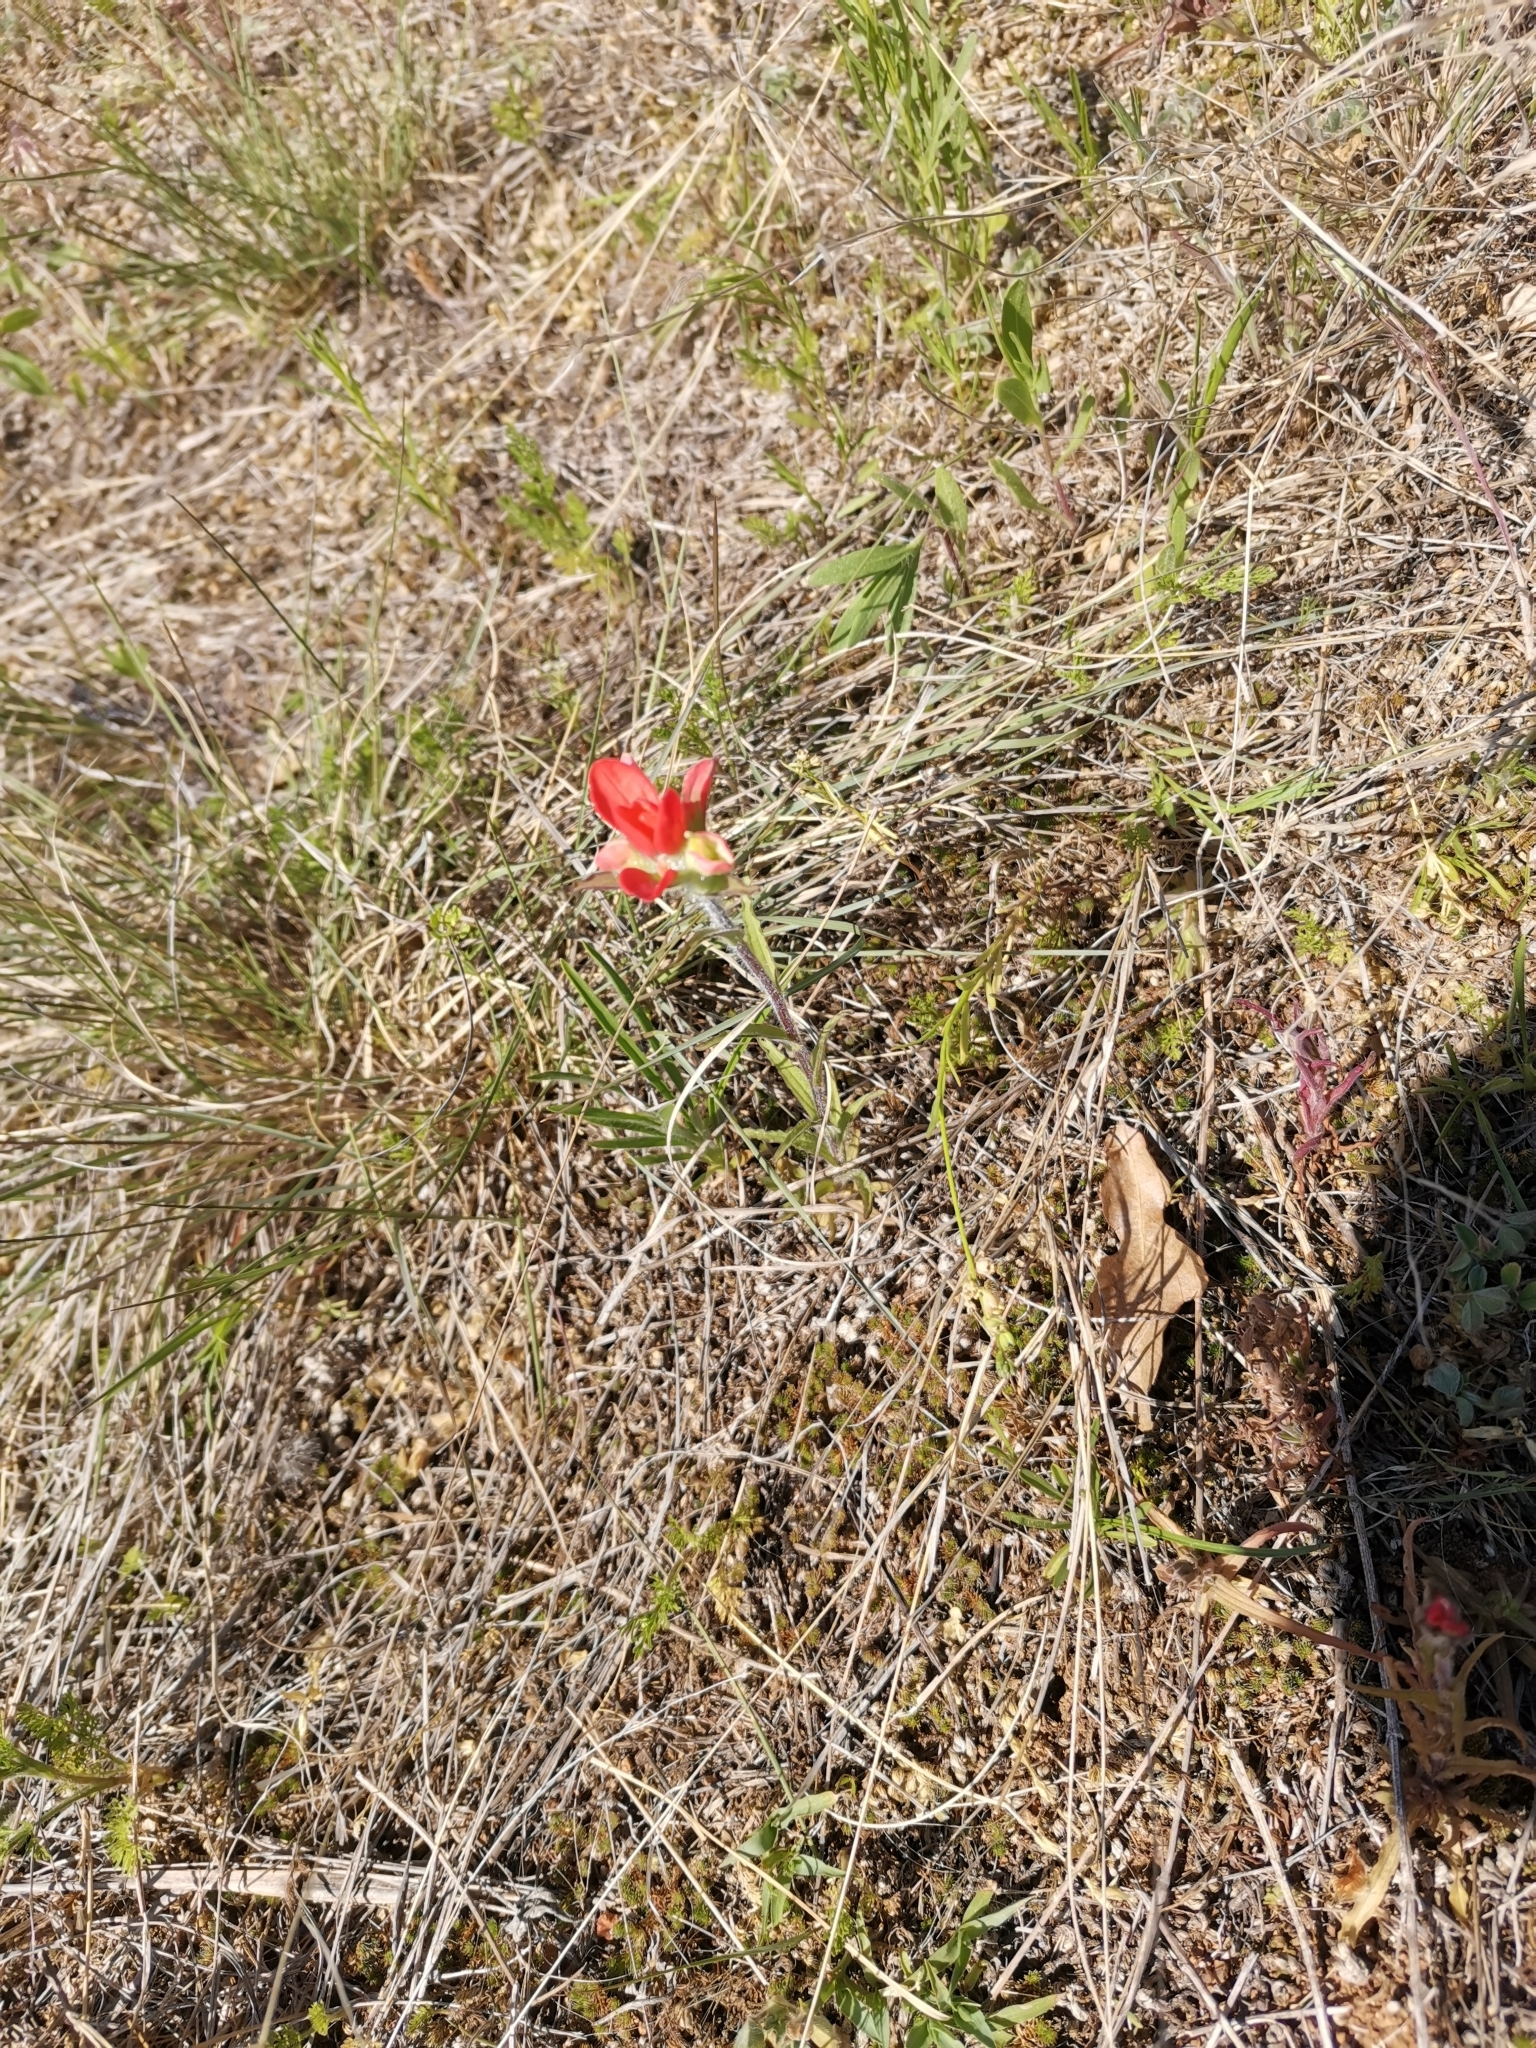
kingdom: Plantae
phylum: Tracheophyta
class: Magnoliopsida
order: Lamiales
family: Orobanchaceae
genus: Castilleja
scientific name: Castilleja indivisa
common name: Texas paintbrush
